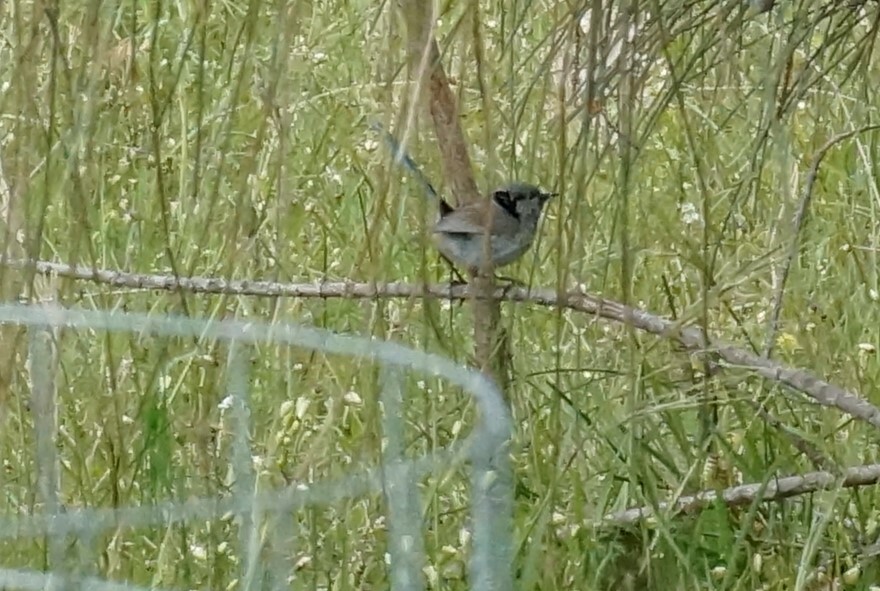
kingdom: Animalia
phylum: Chordata
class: Aves
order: Passeriformes
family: Maluridae
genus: Malurus
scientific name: Malurus cyaneus
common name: Superb fairywren
